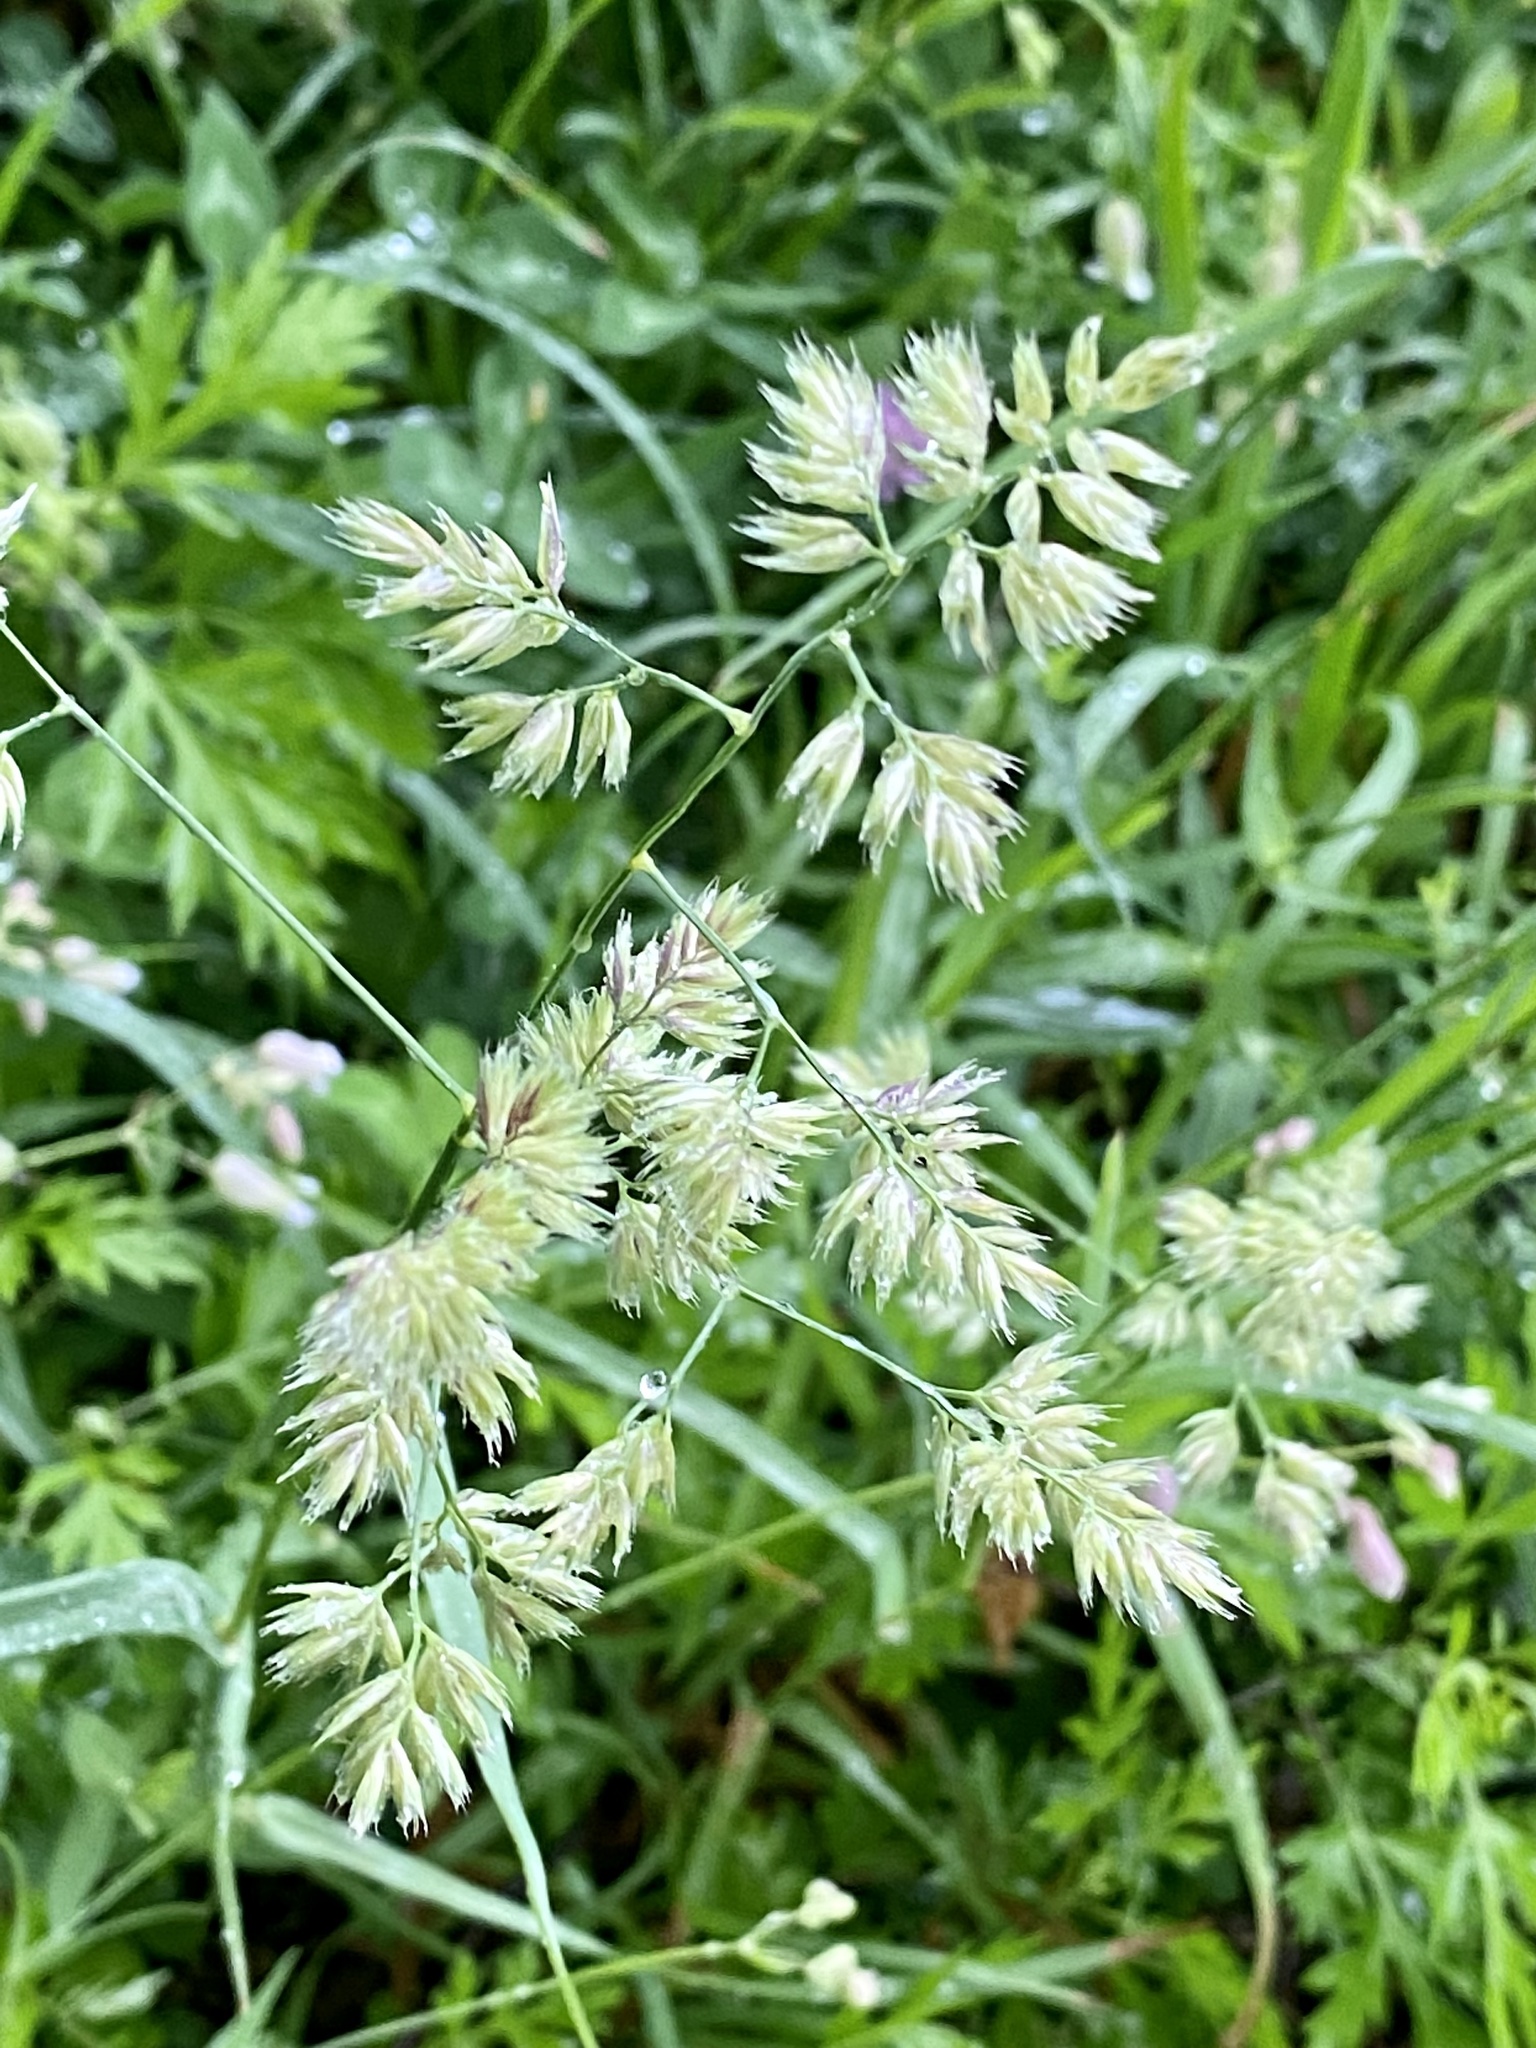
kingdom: Plantae
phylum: Tracheophyta
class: Liliopsida
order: Poales
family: Poaceae
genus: Dactylis
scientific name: Dactylis glomerata
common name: Orchardgrass
